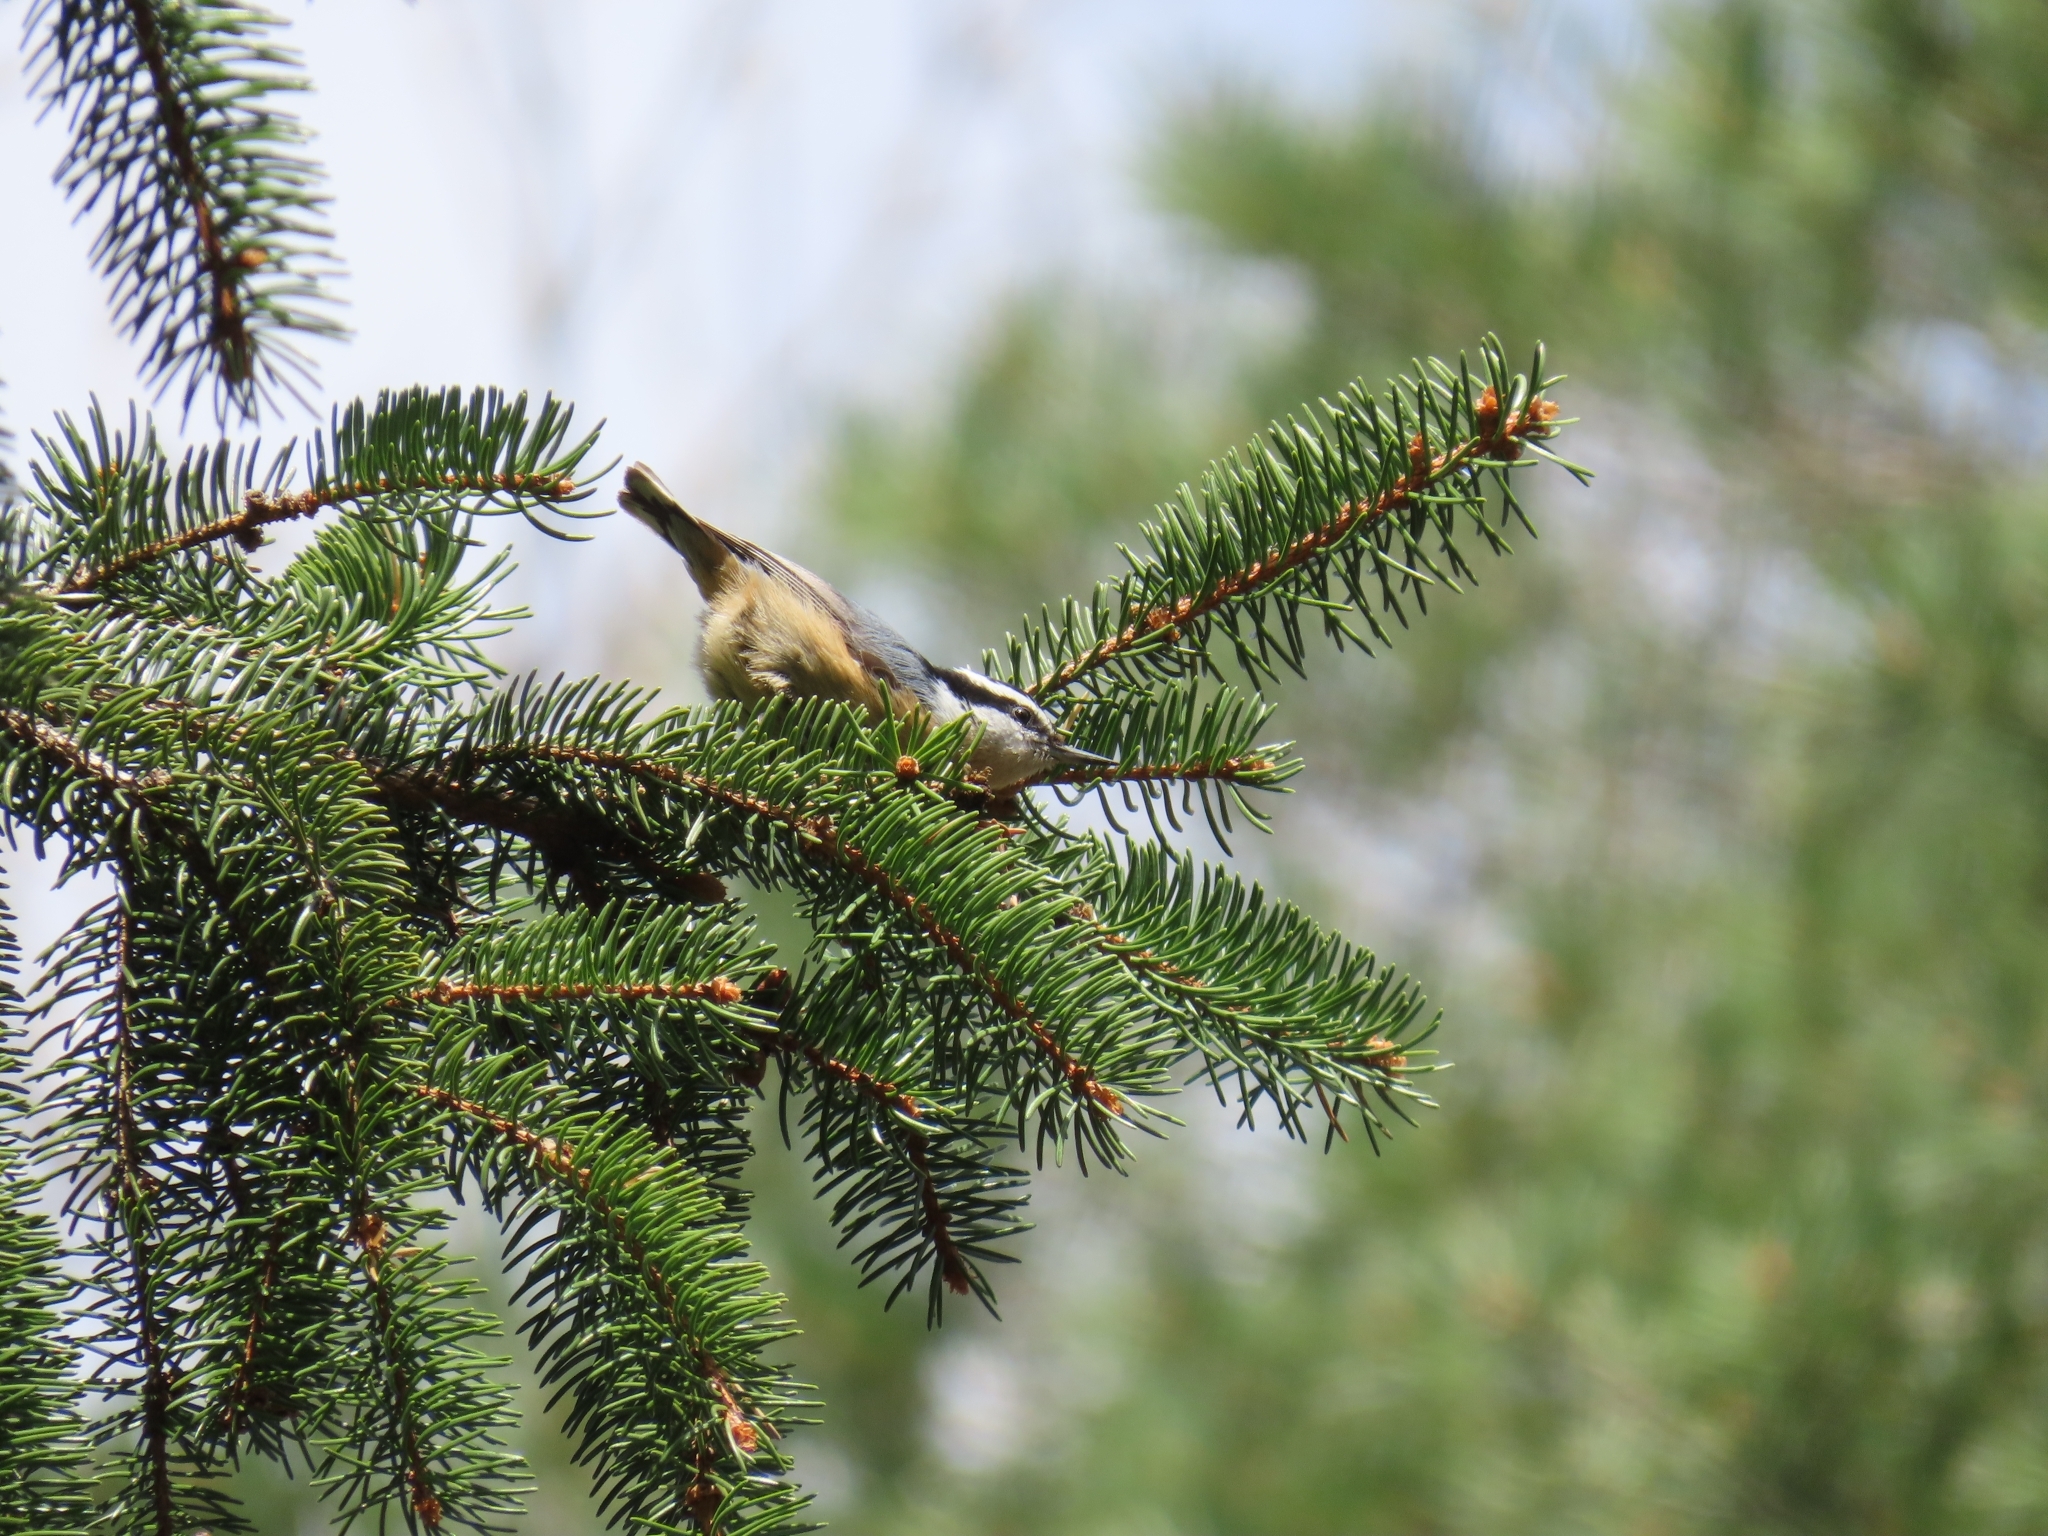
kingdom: Animalia
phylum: Chordata
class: Aves
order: Passeriformes
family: Sittidae
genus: Sitta
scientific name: Sitta canadensis
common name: Red-breasted nuthatch
